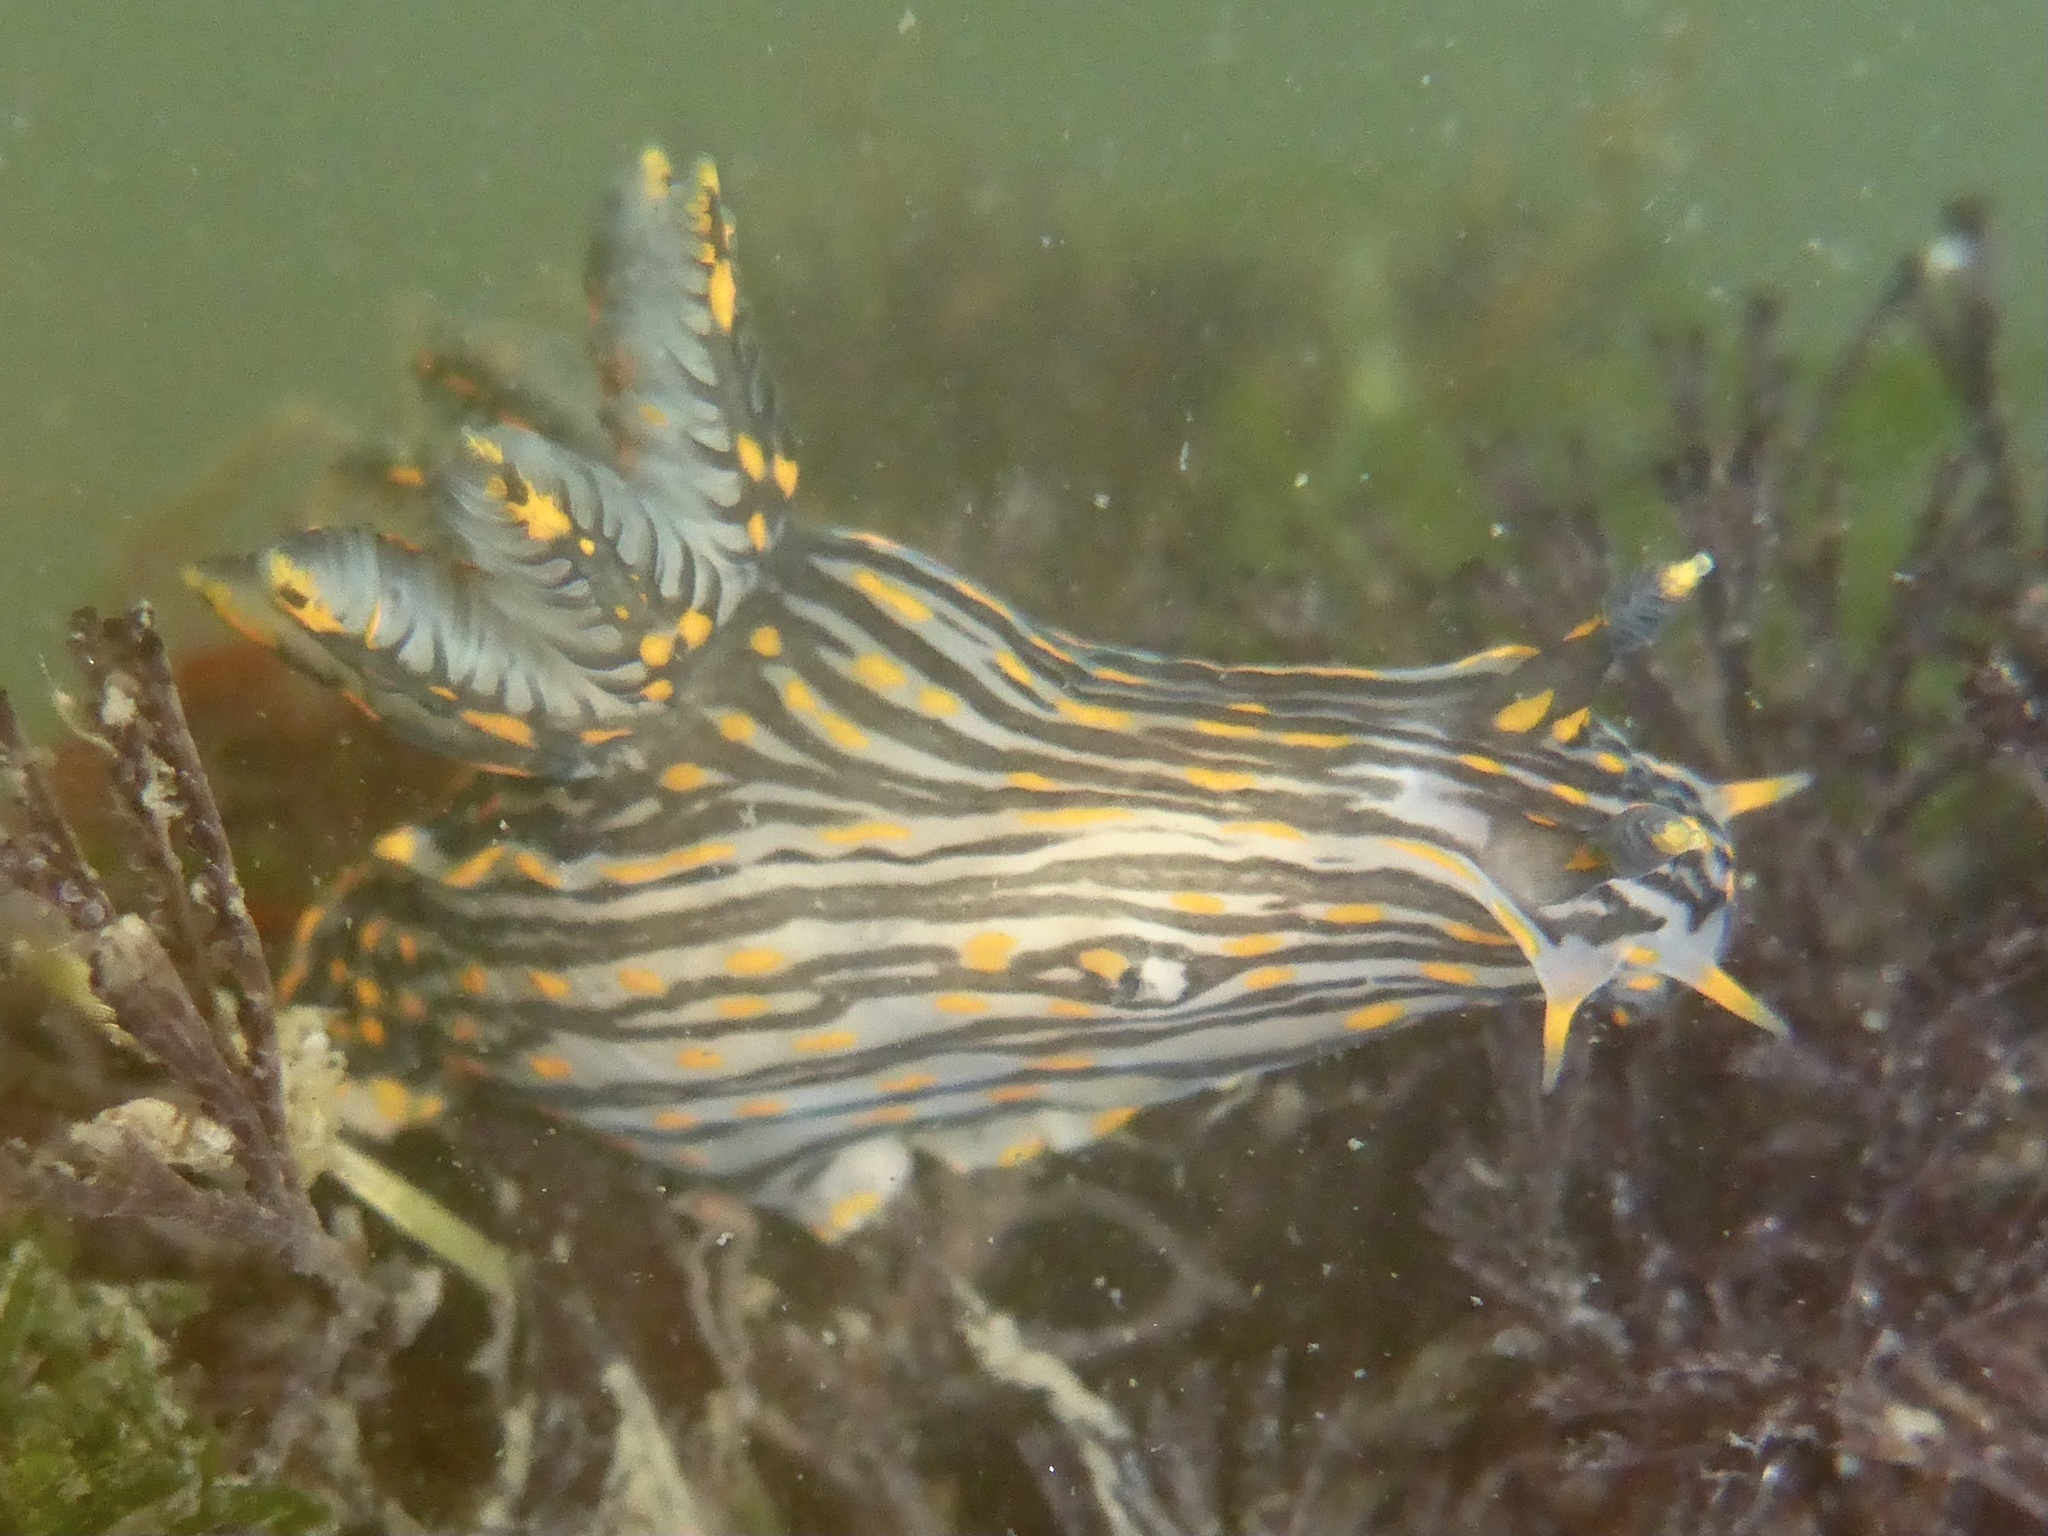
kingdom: Animalia
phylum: Mollusca
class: Gastropoda
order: Nudibranchia
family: Polyceridae
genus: Polycera
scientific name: Polycera atra
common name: Orange-spike polycera
